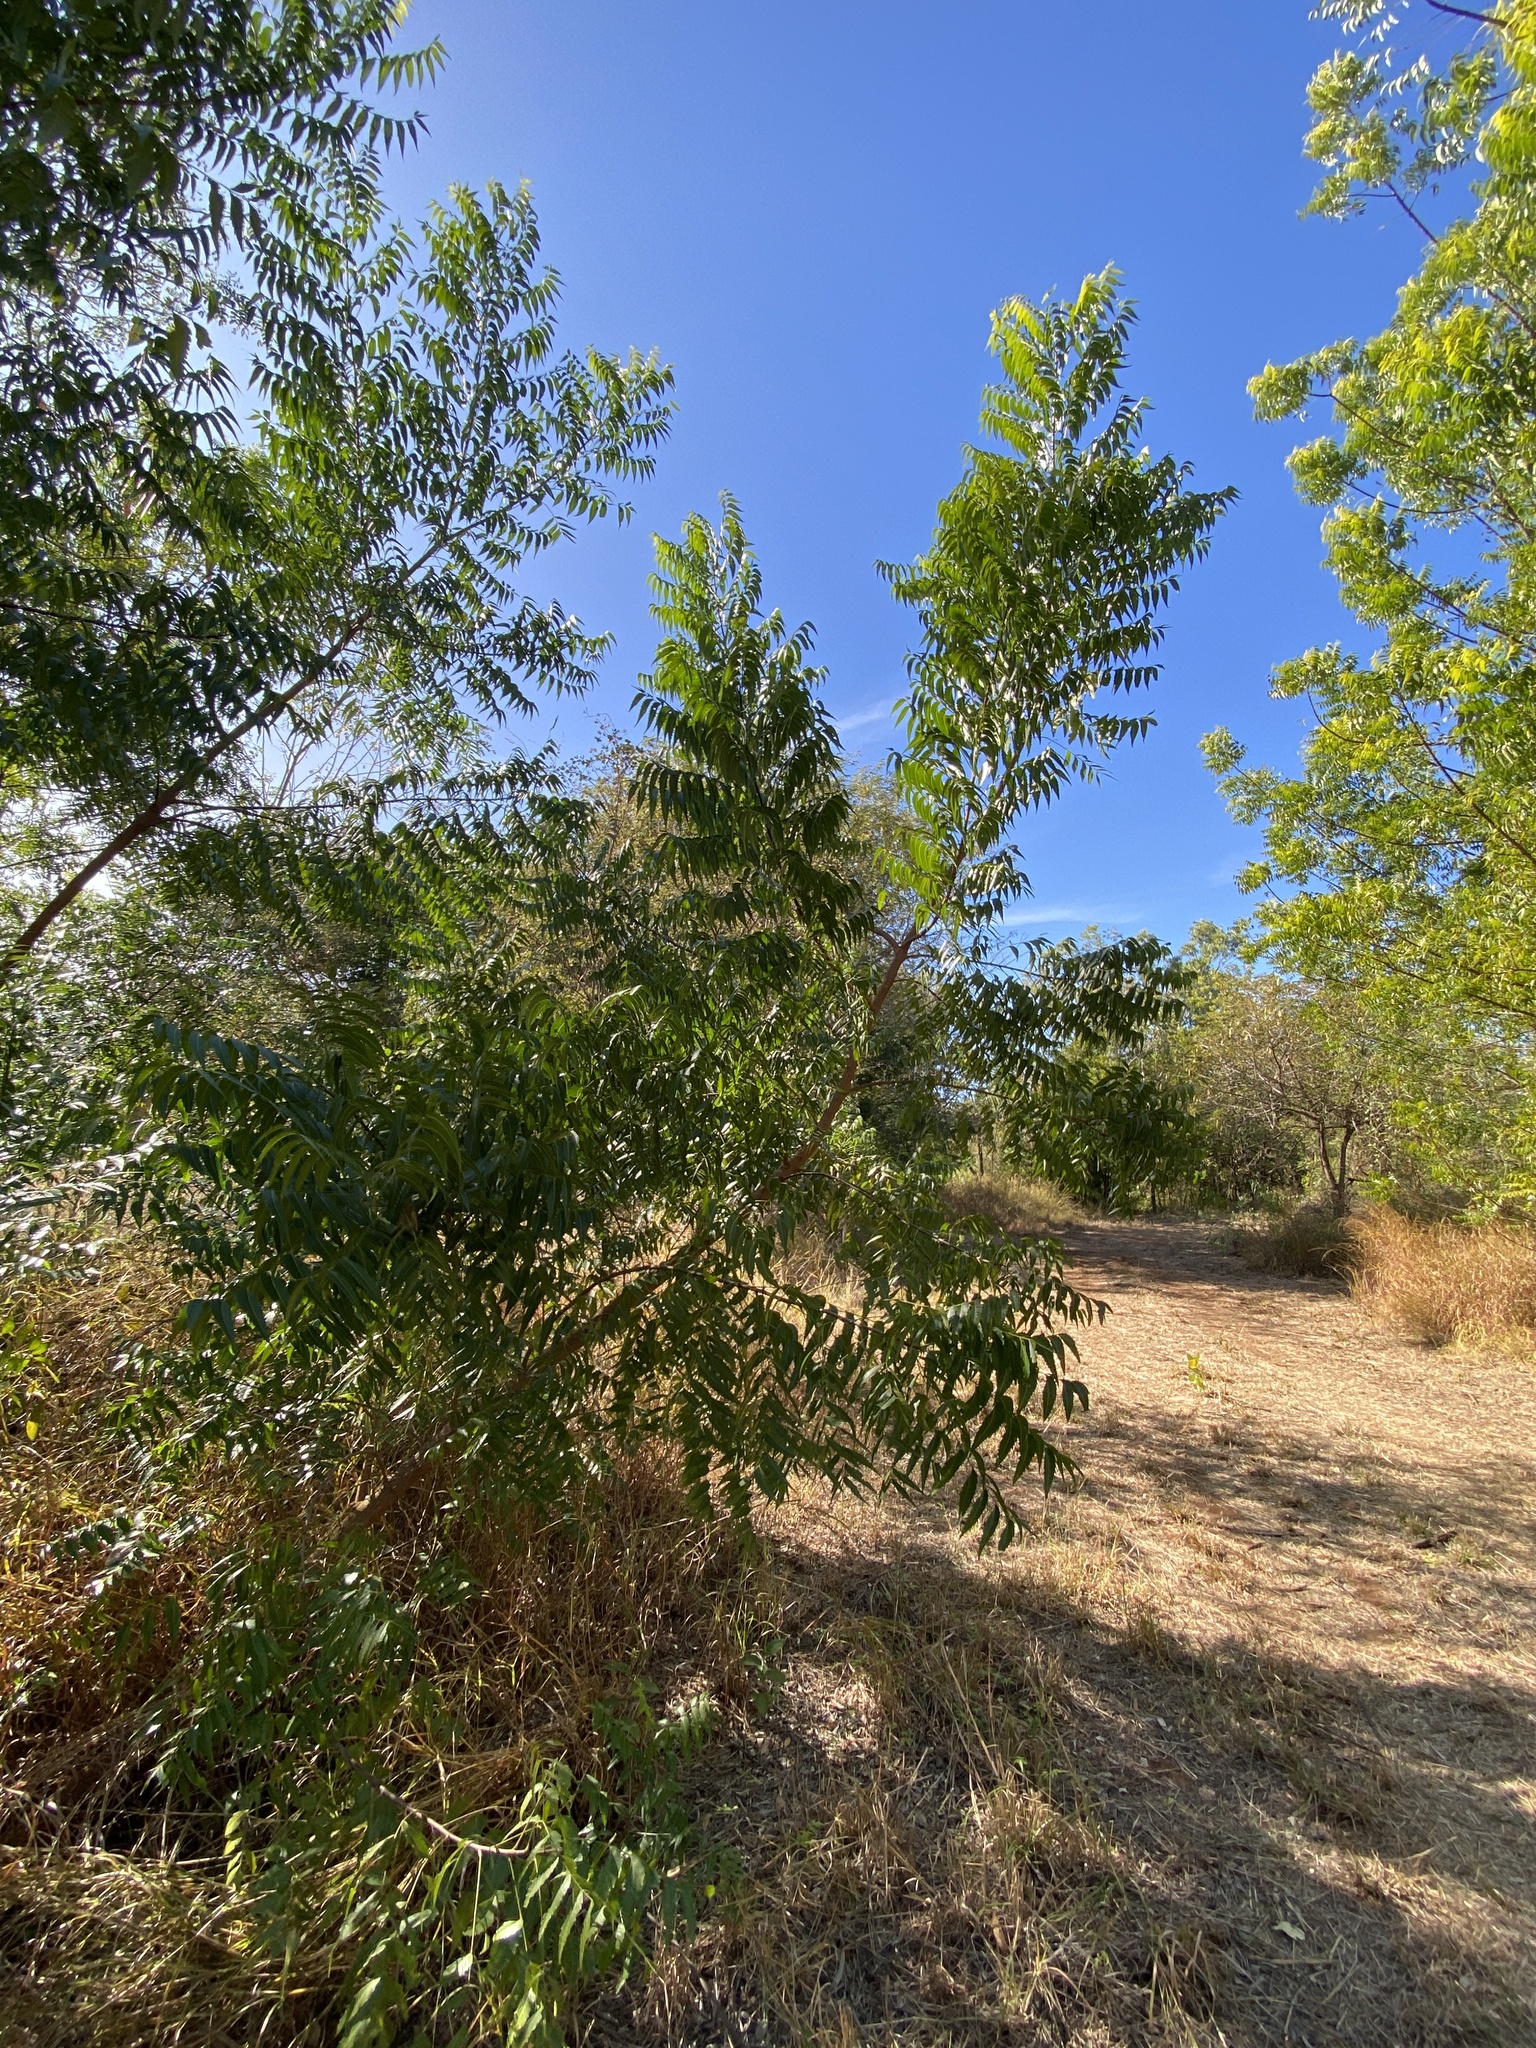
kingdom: Plantae
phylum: Tracheophyta
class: Magnoliopsida
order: Sapindales
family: Meliaceae
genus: Azadirachta
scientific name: Azadirachta indica
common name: Neem
